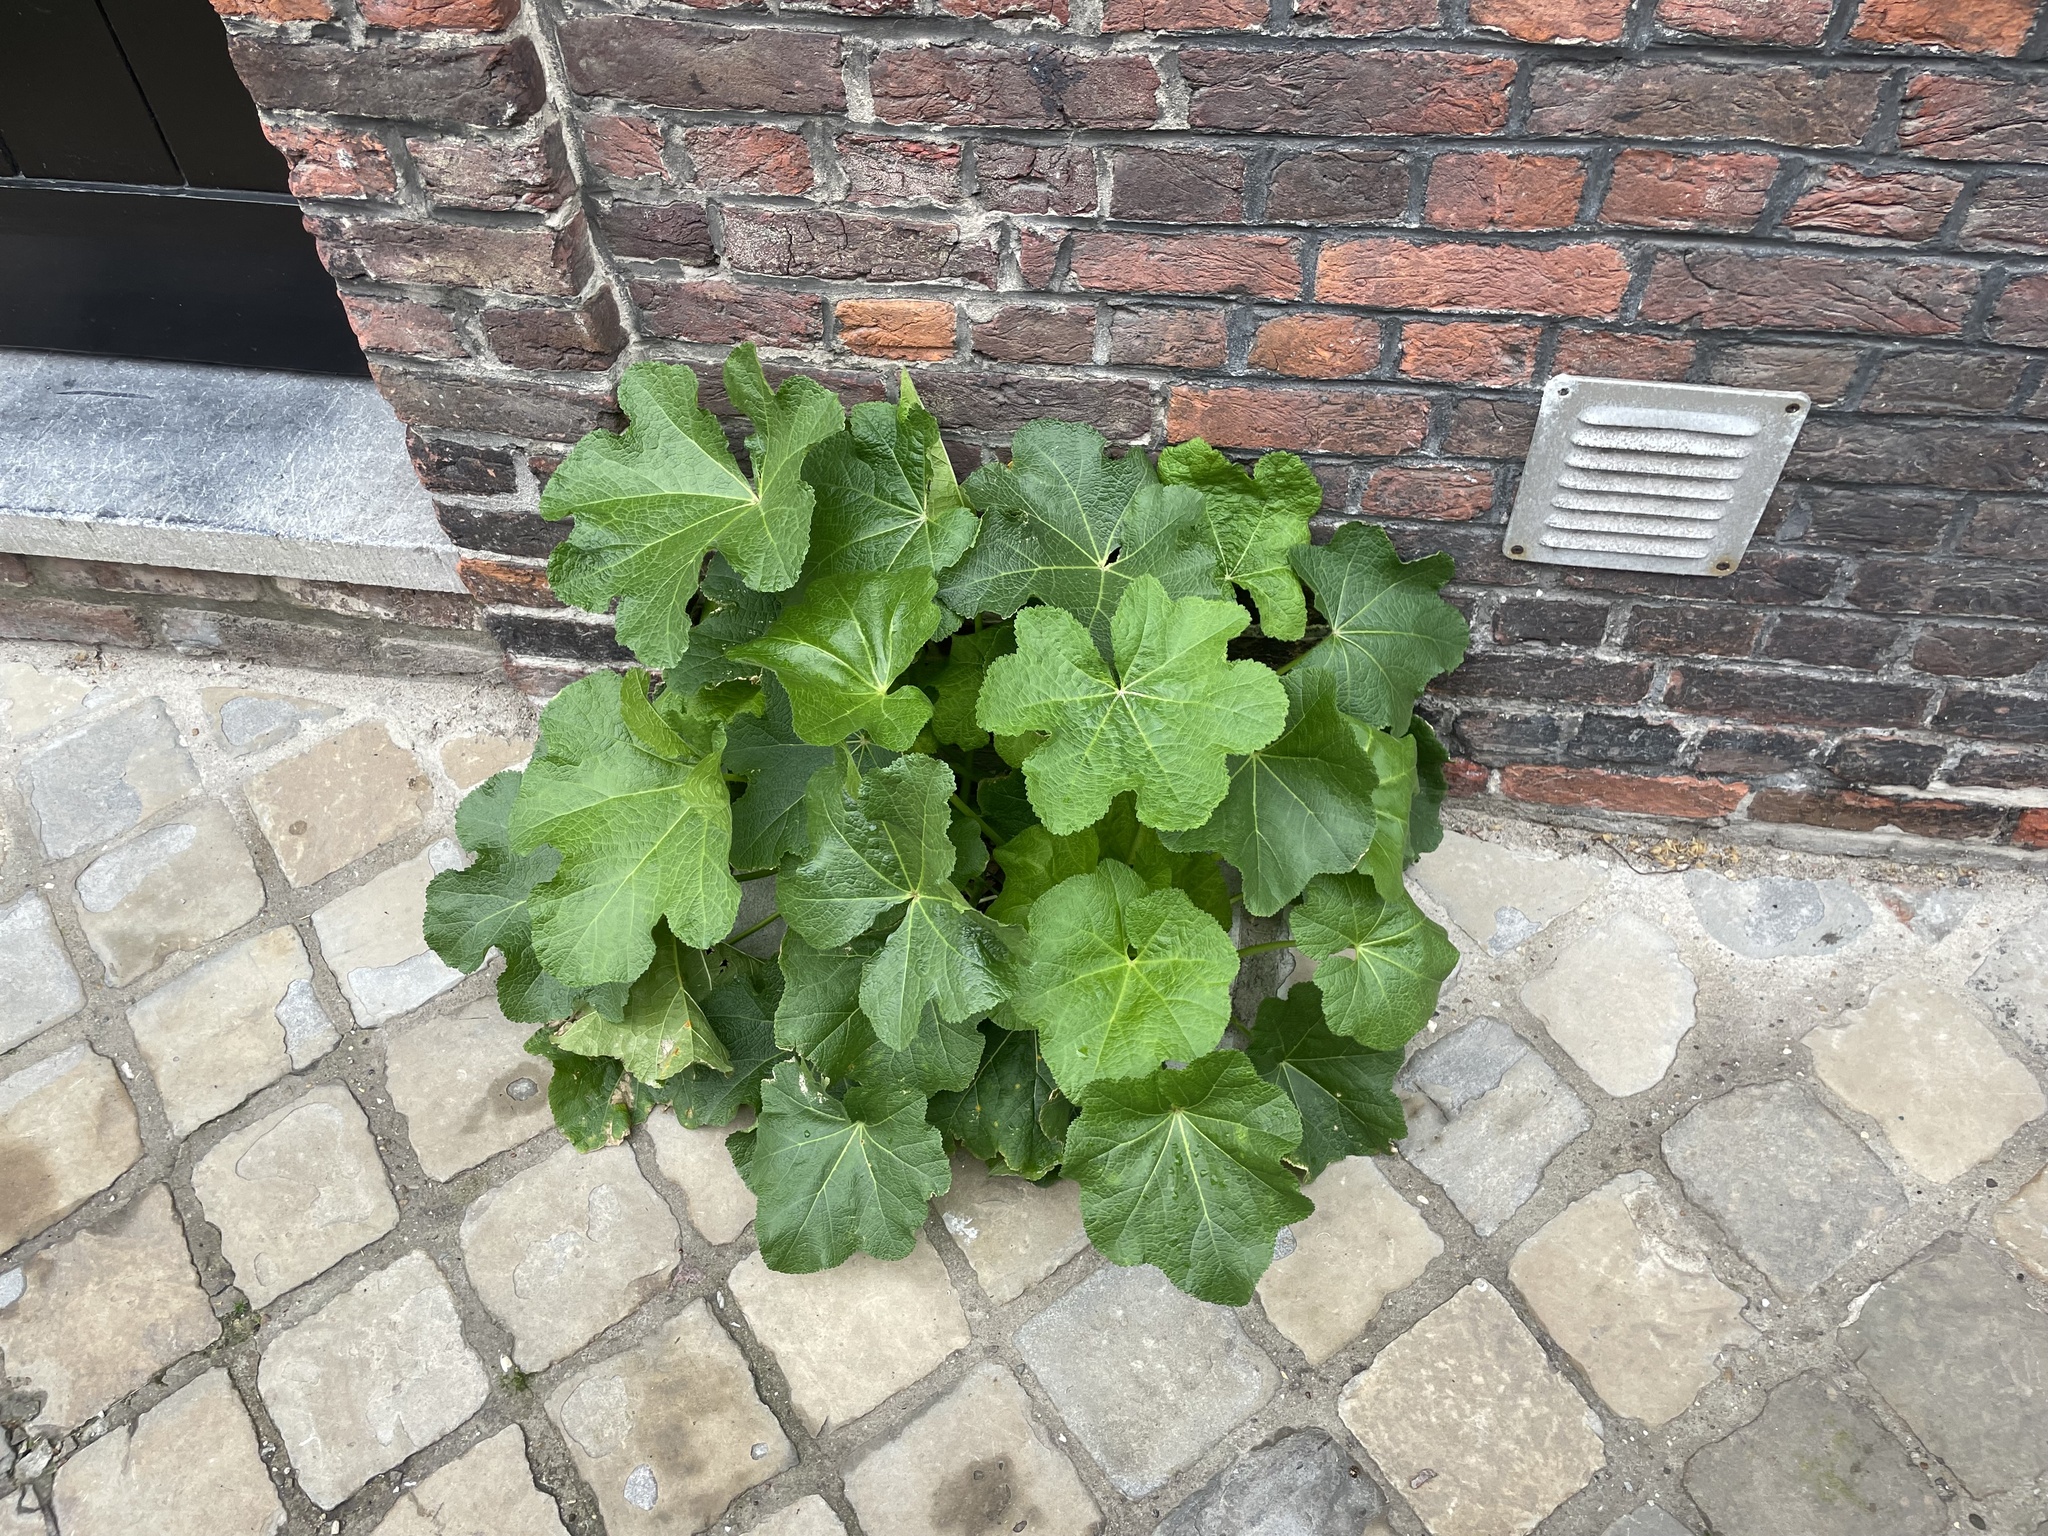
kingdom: Plantae
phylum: Tracheophyta
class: Magnoliopsida
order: Malvales
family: Malvaceae
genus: Alcea
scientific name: Alcea rosea
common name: Hollyhock
